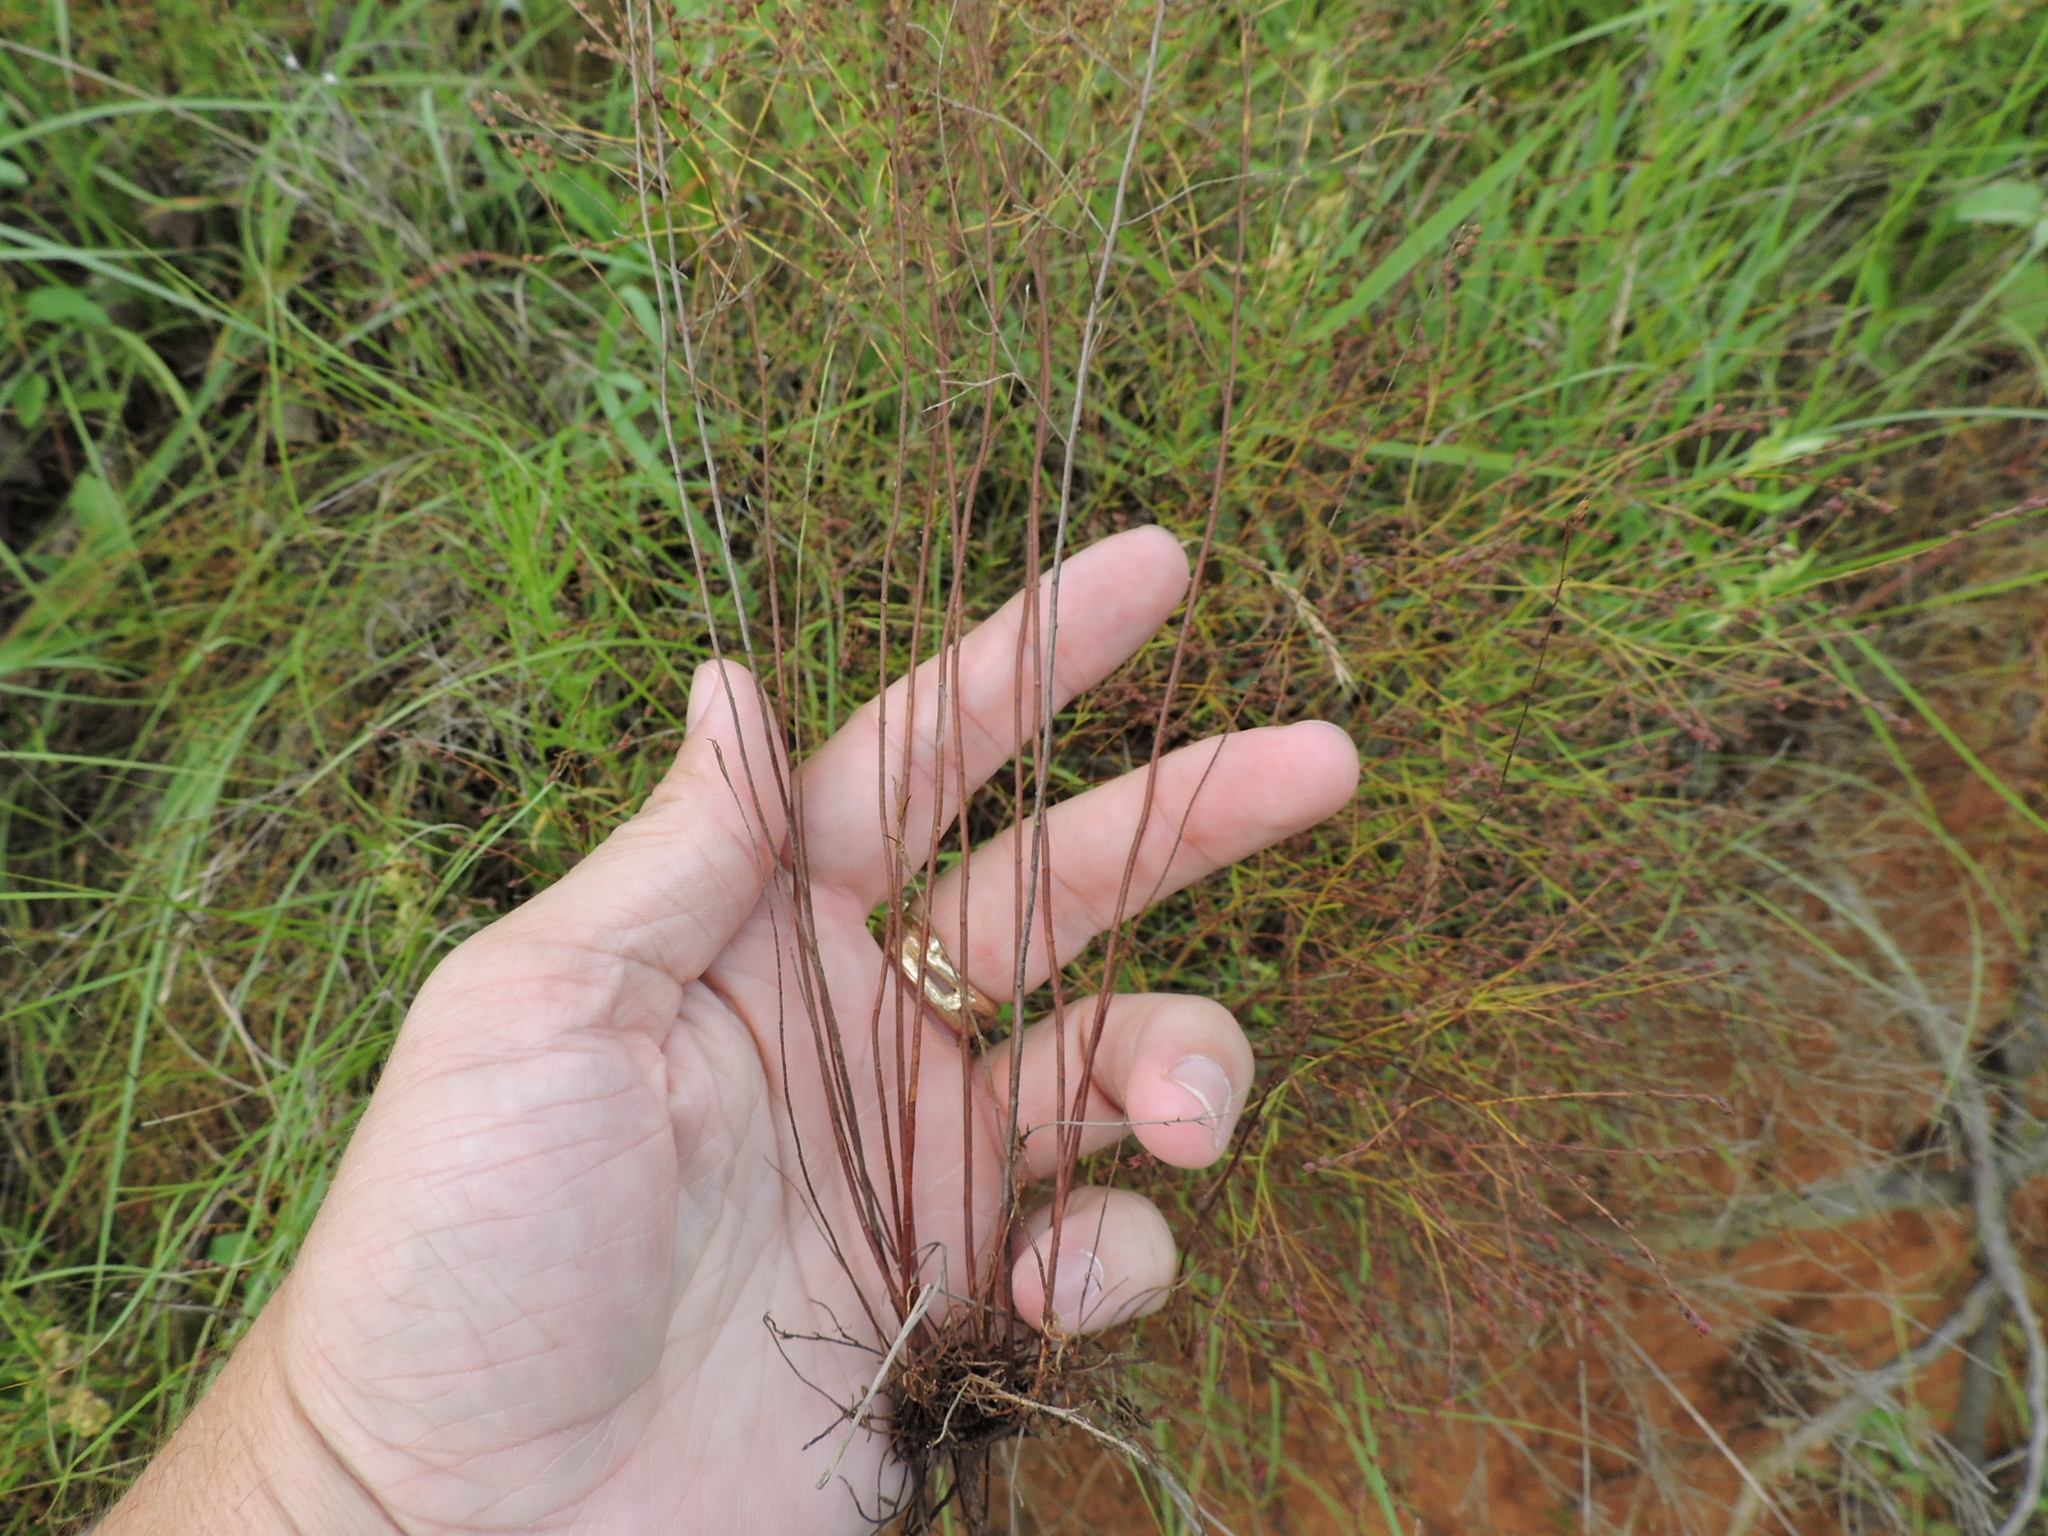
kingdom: Plantae
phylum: Tracheophyta
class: Magnoliopsida
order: Malvales
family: Cistaceae
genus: Lechea
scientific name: Lechea tenuifolia
